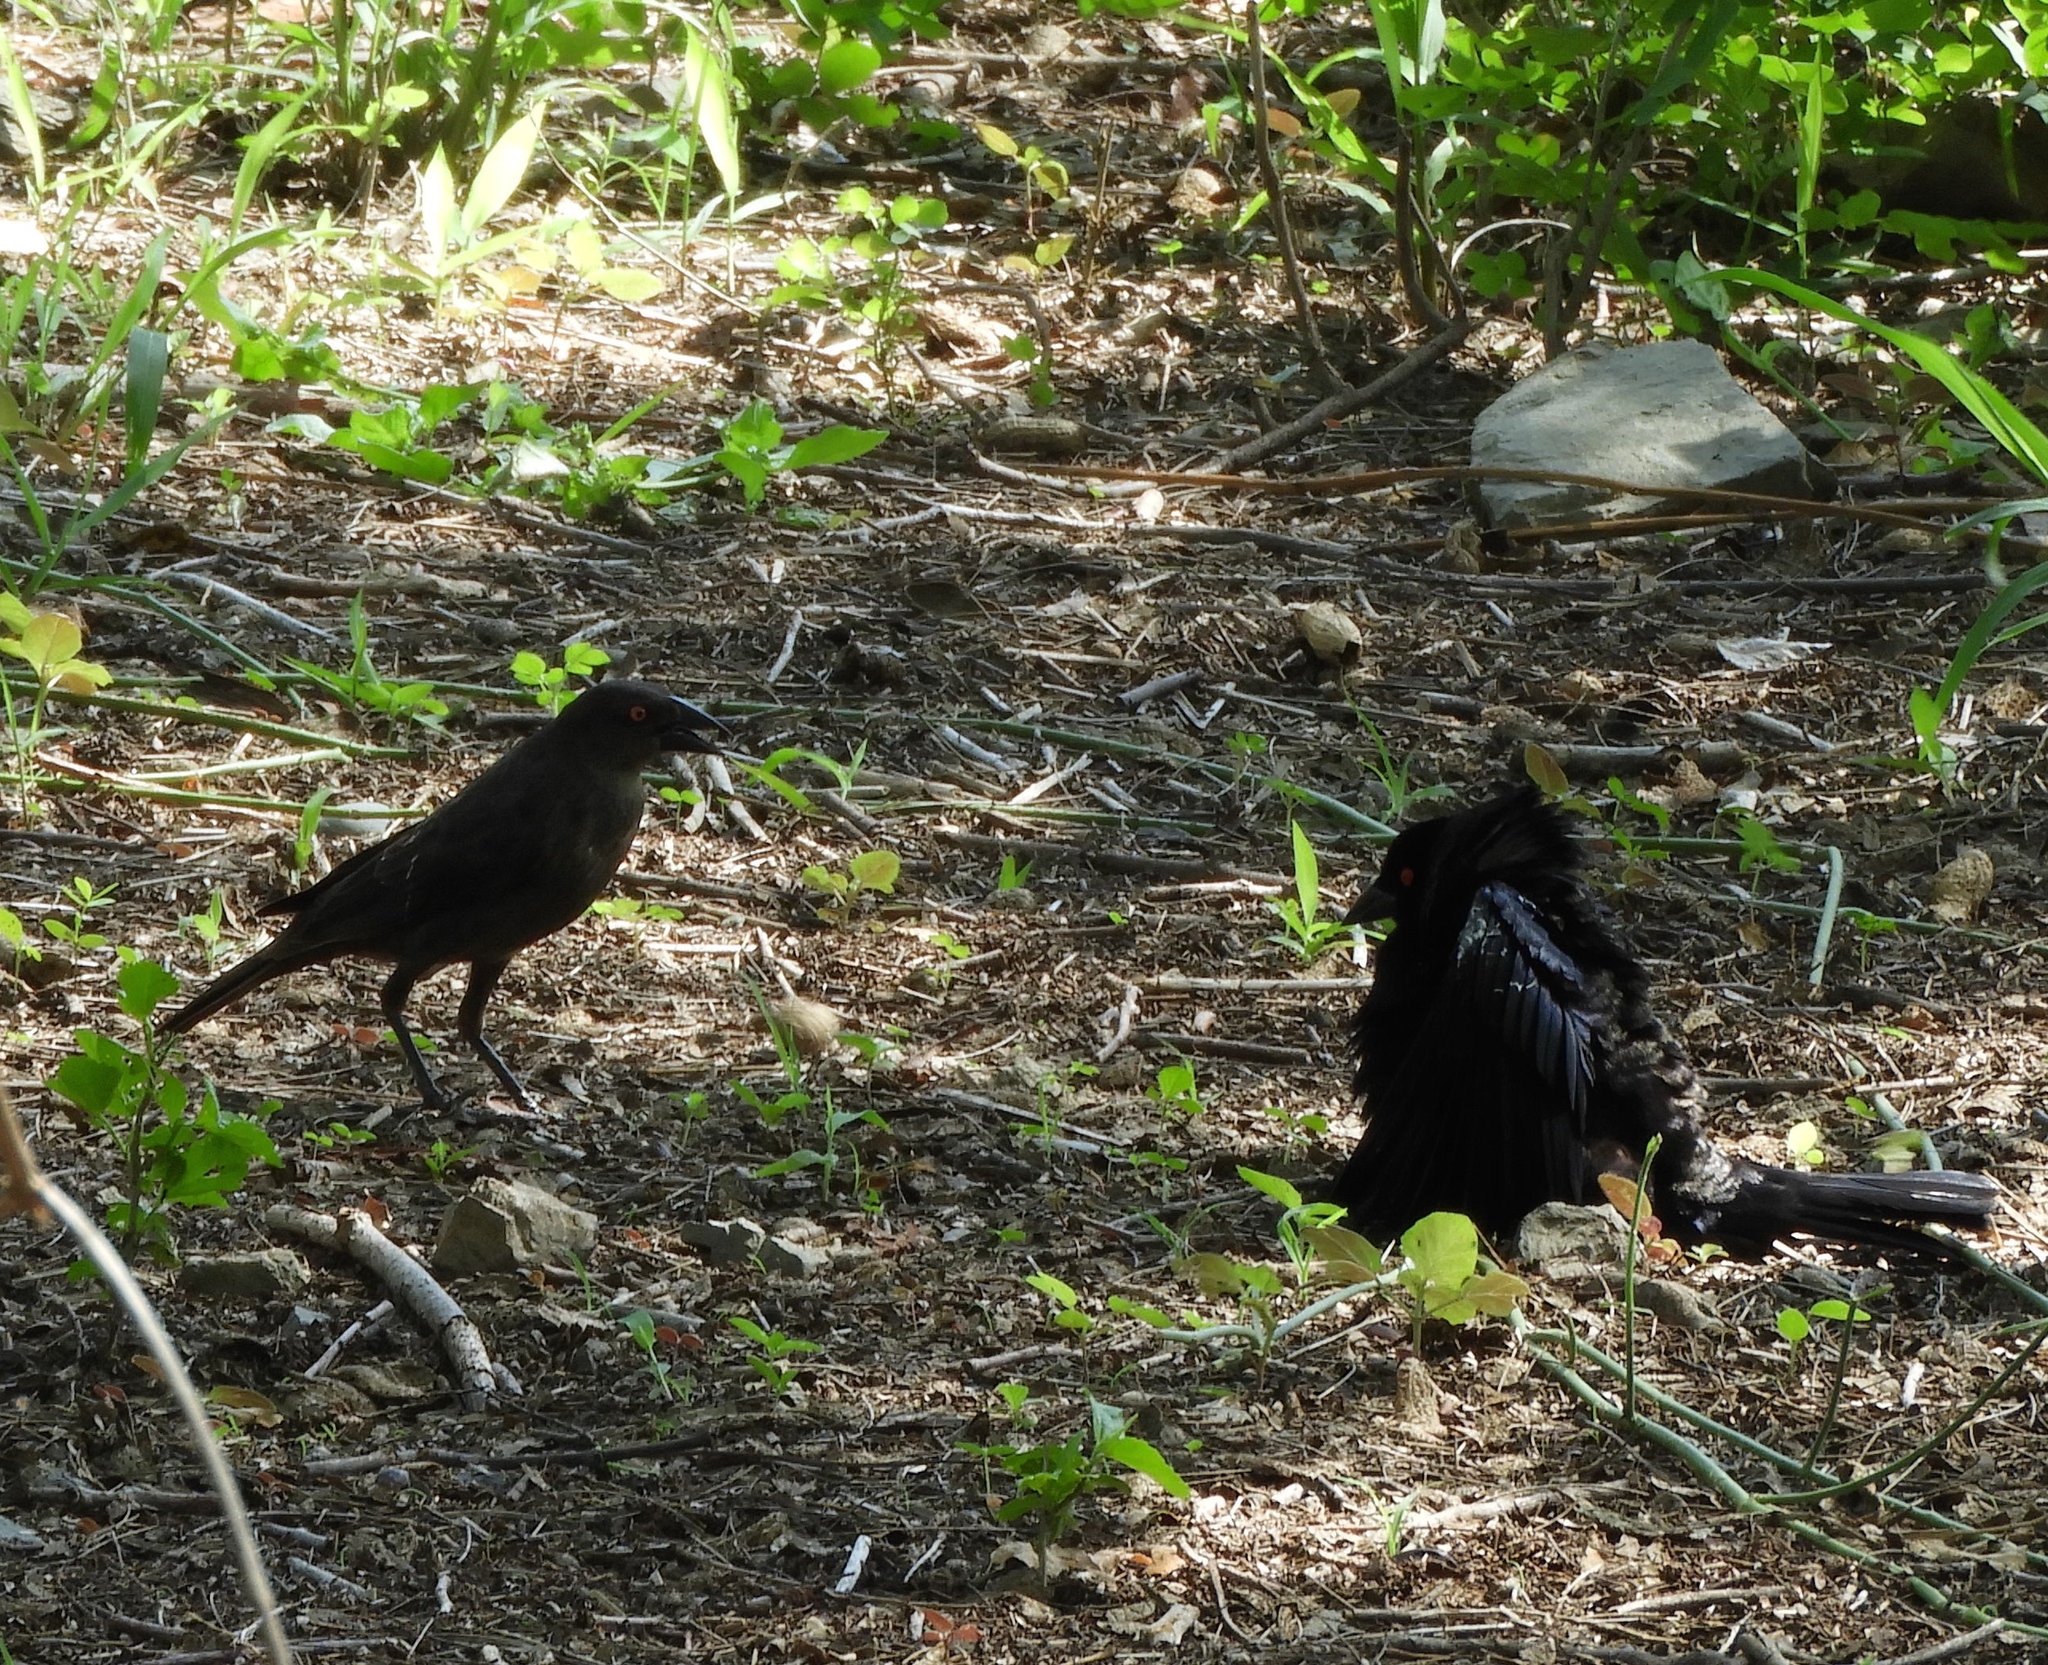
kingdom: Animalia
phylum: Chordata
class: Aves
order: Passeriformes
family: Icteridae
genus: Molothrus
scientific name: Molothrus aeneus
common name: Bronzed cowbird
